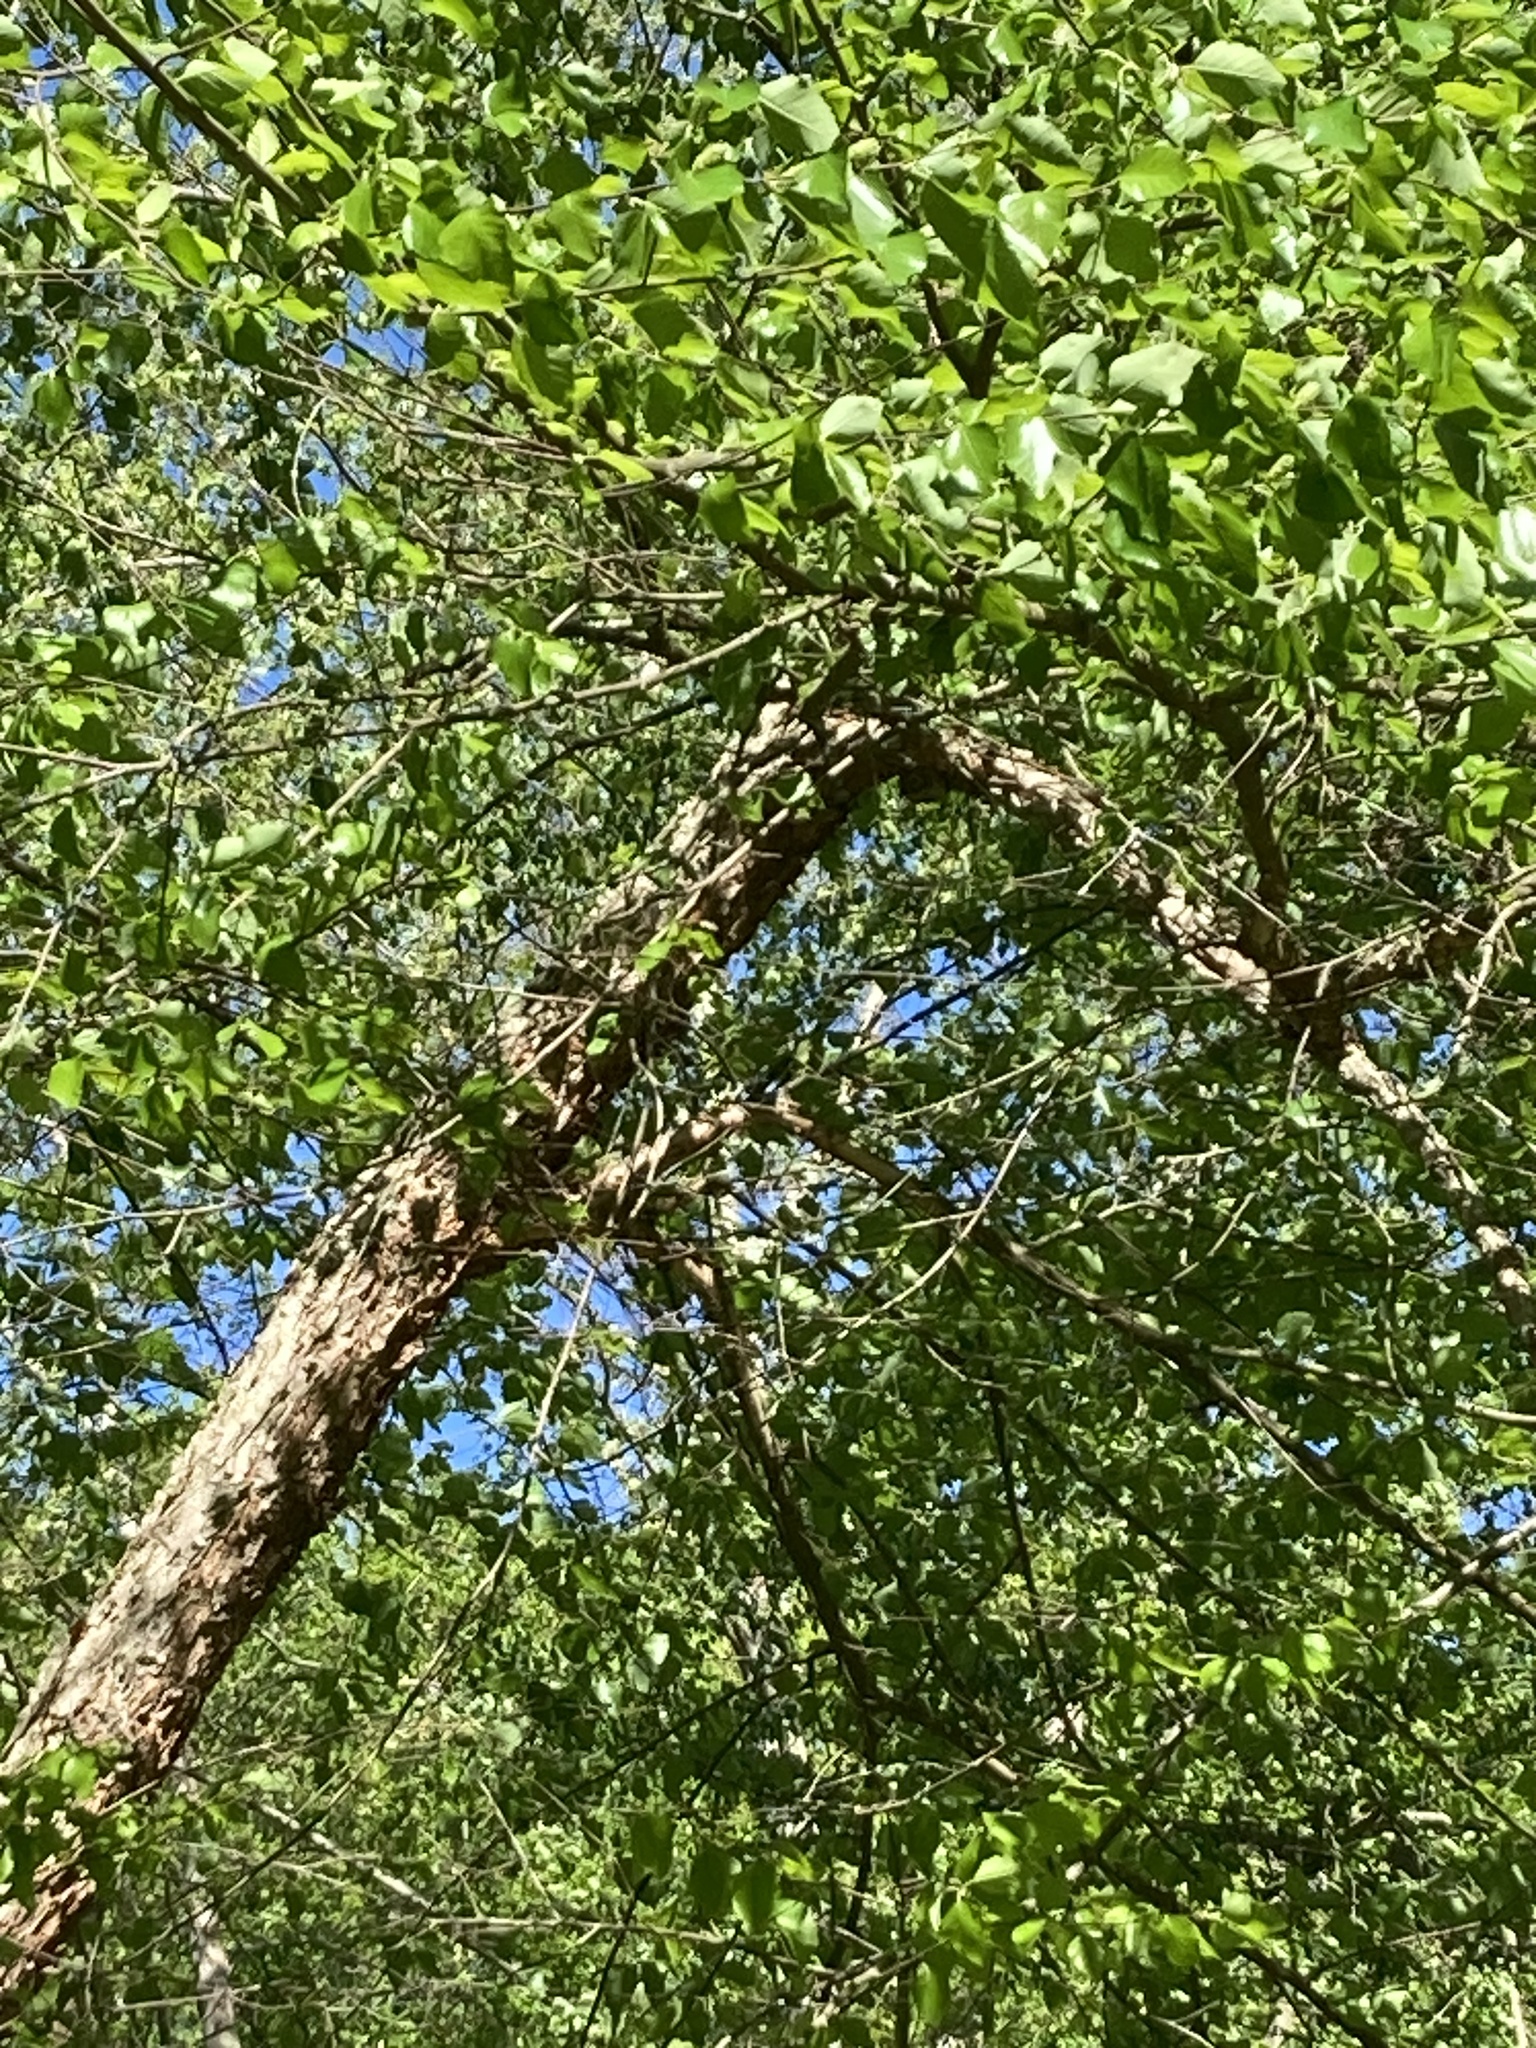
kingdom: Plantae
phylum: Tracheophyta
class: Magnoliopsida
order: Fagales
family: Betulaceae
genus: Betula
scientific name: Betula nigra
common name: Black birch
